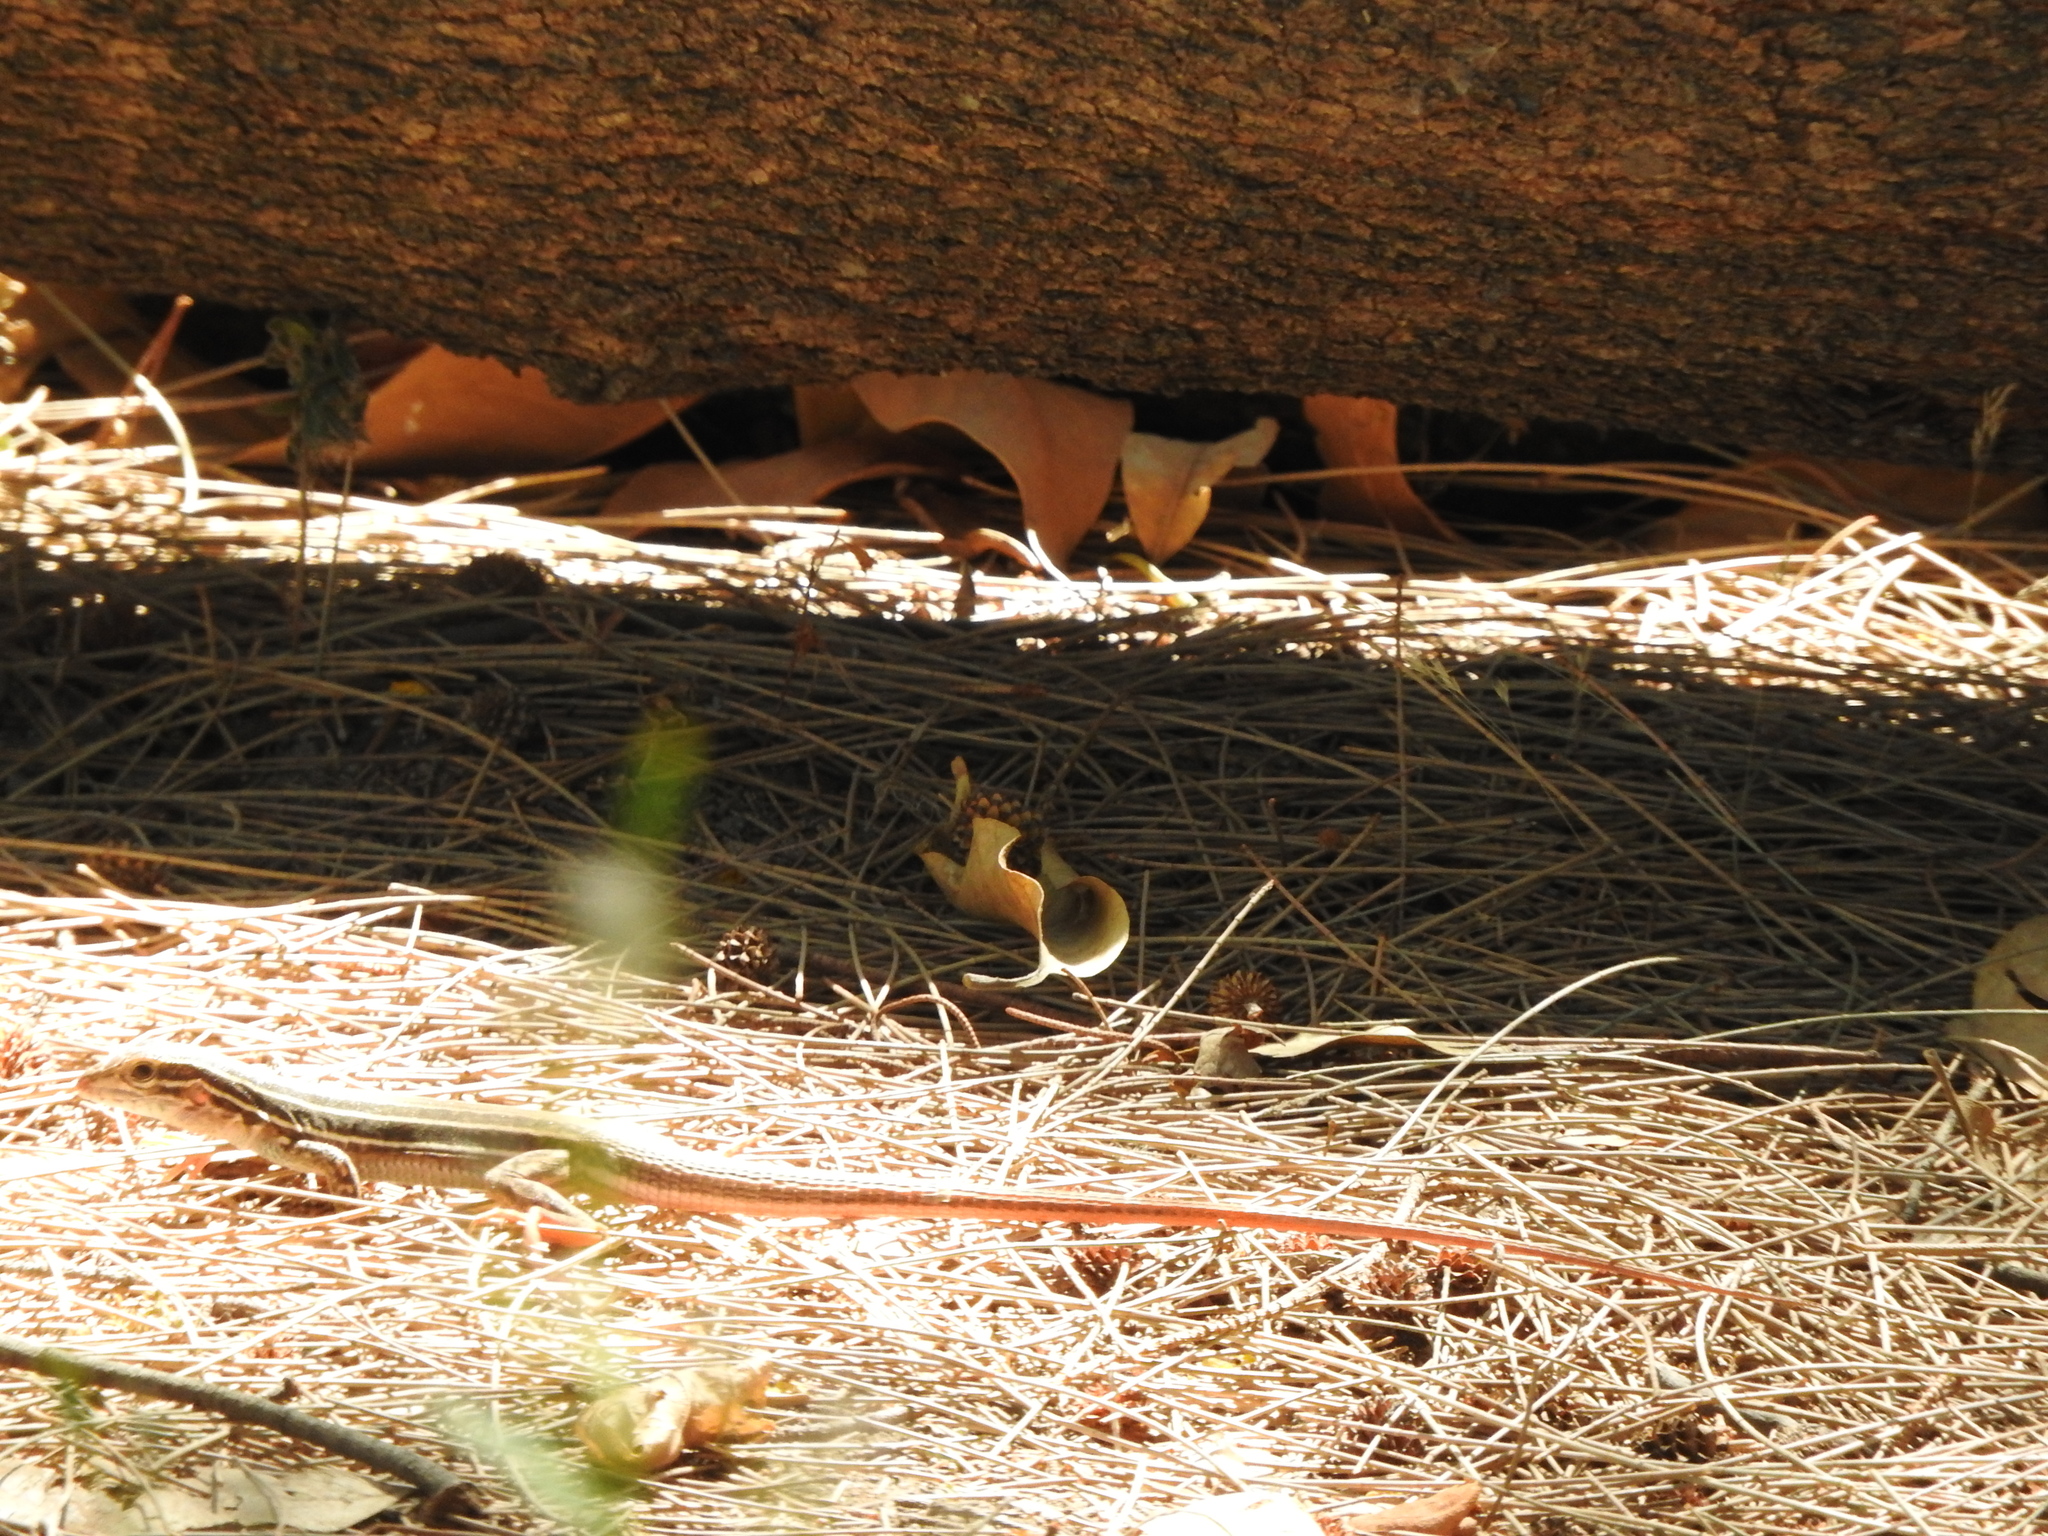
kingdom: Animalia
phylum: Chordata
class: Squamata
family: Teiidae
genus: Aspidoscelis
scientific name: Aspidoscelis gularis
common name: Eastern spotted whiptail
